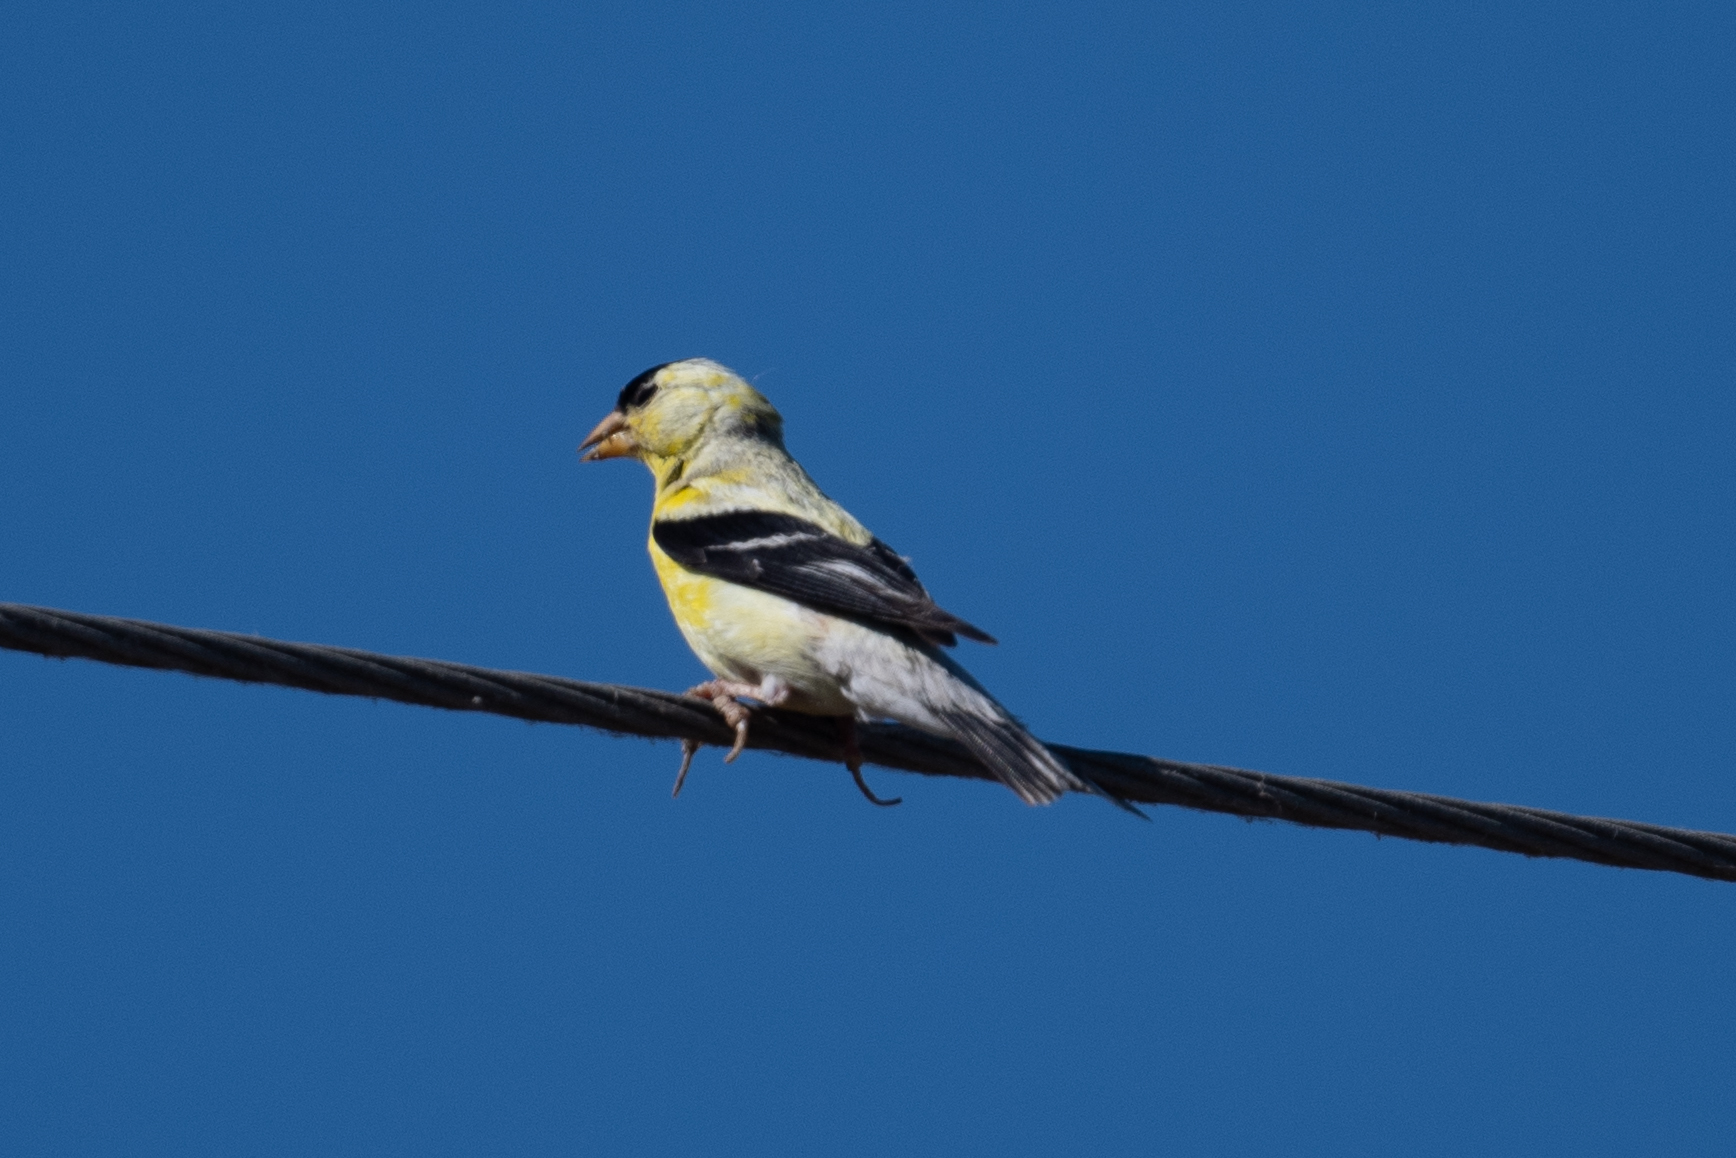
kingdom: Animalia
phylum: Chordata
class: Aves
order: Passeriformes
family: Fringillidae
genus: Spinus
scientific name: Spinus tristis
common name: American goldfinch
